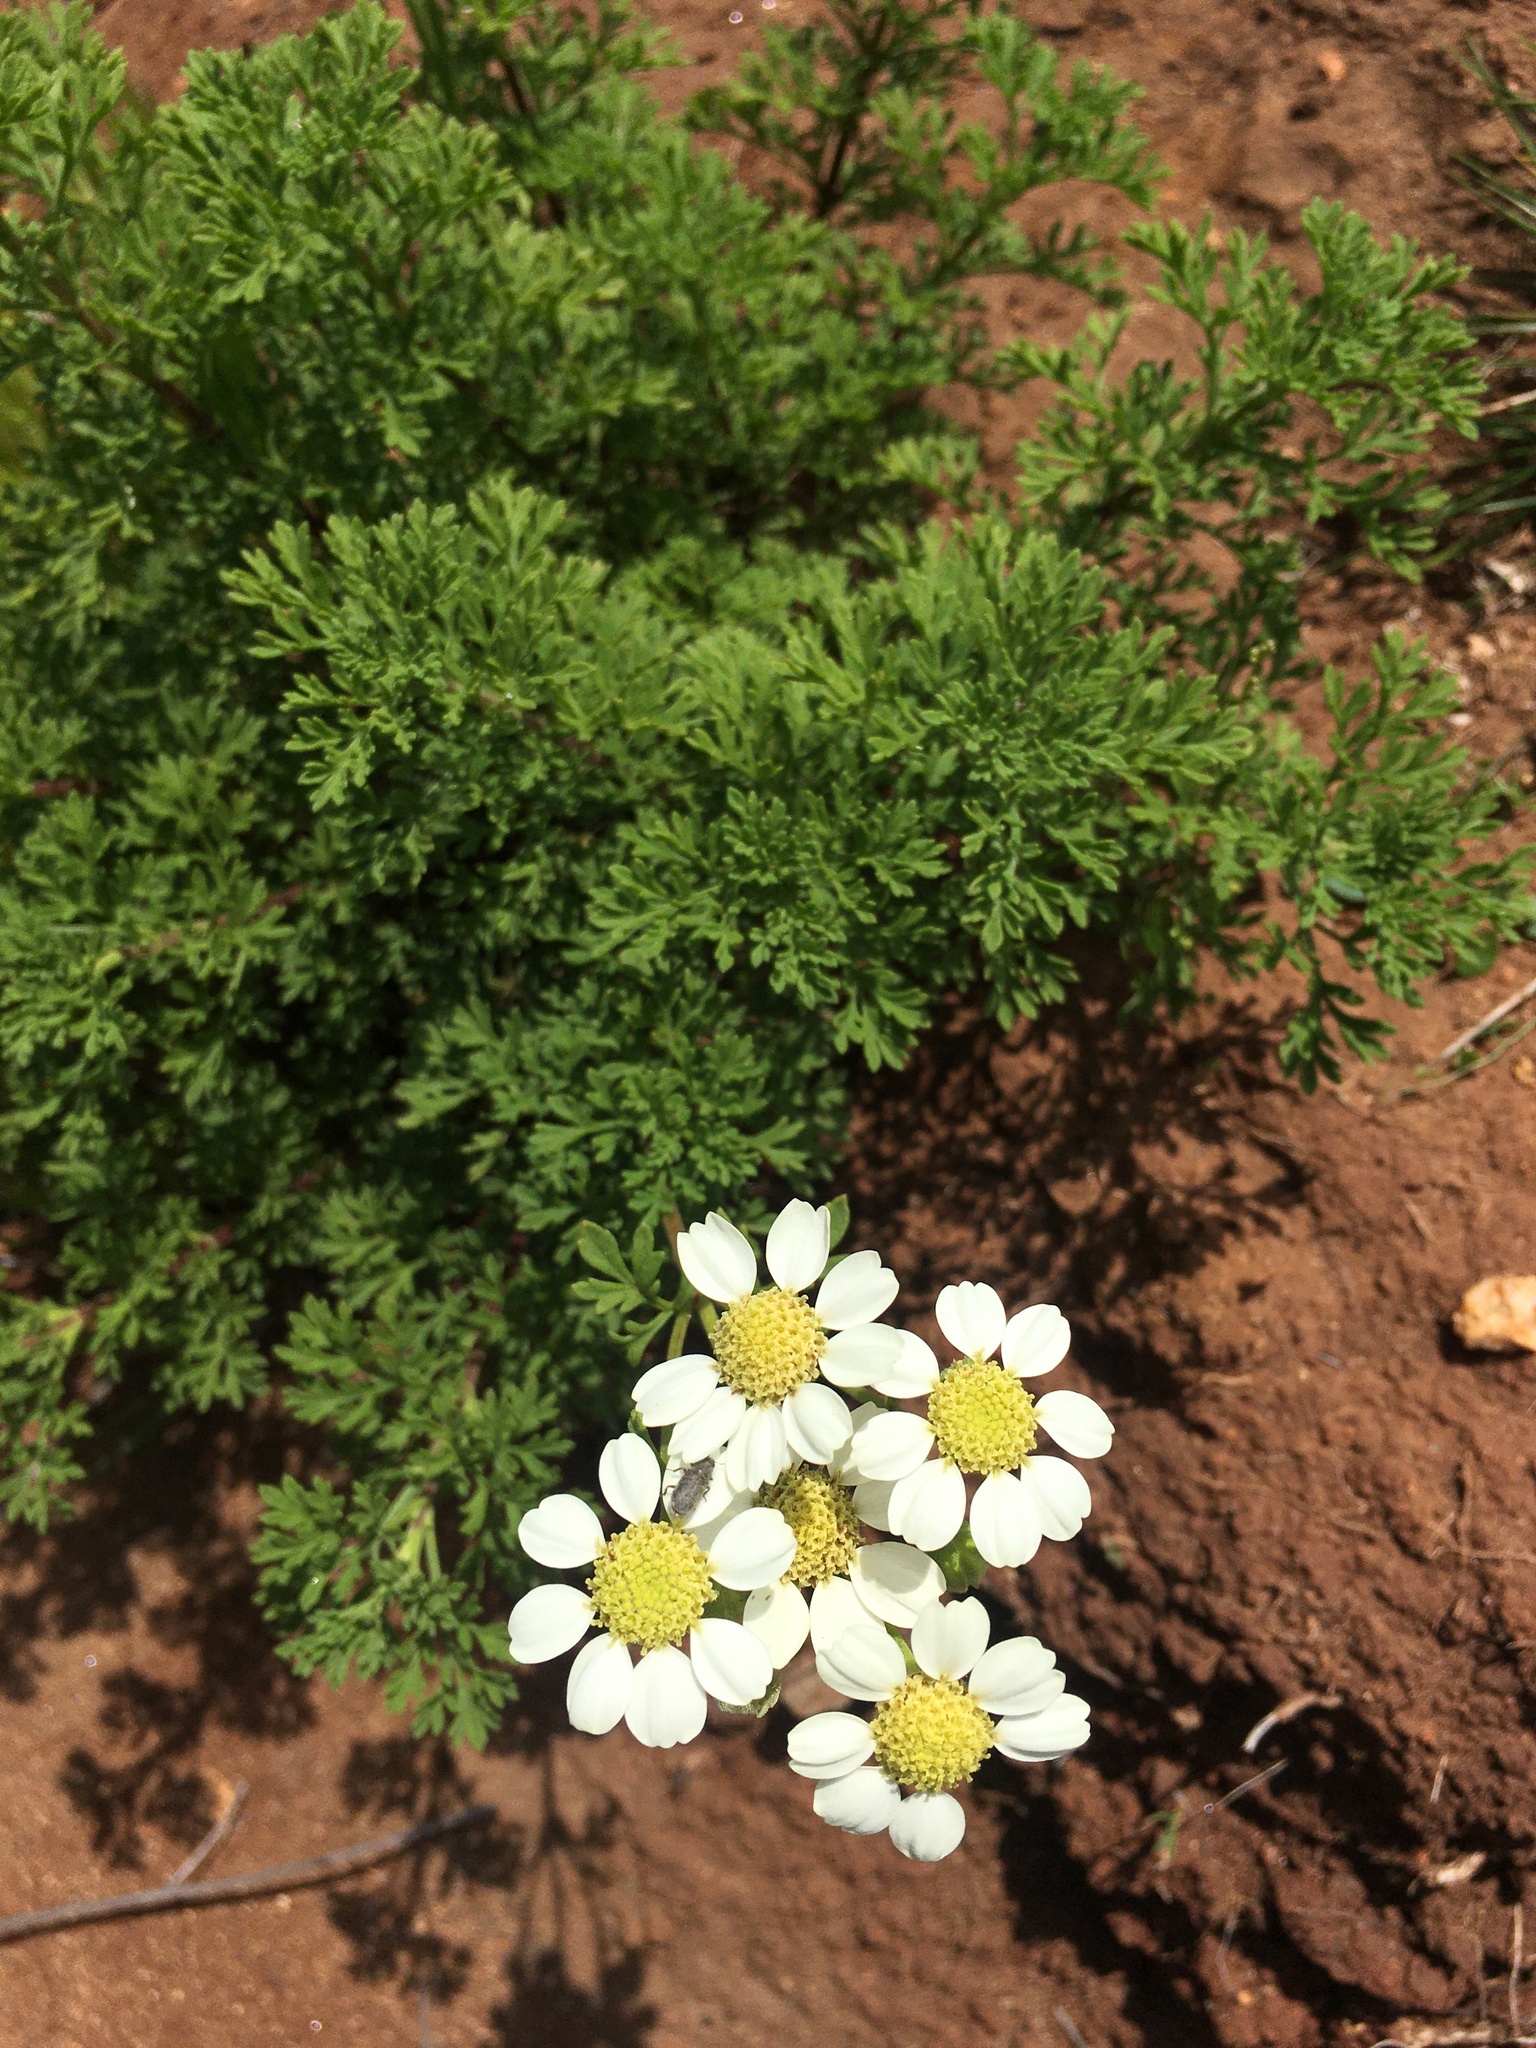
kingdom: Plantae
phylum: Tracheophyta
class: Magnoliopsida
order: Asterales
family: Asteraceae
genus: Bahia
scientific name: Bahia ambrosioides
